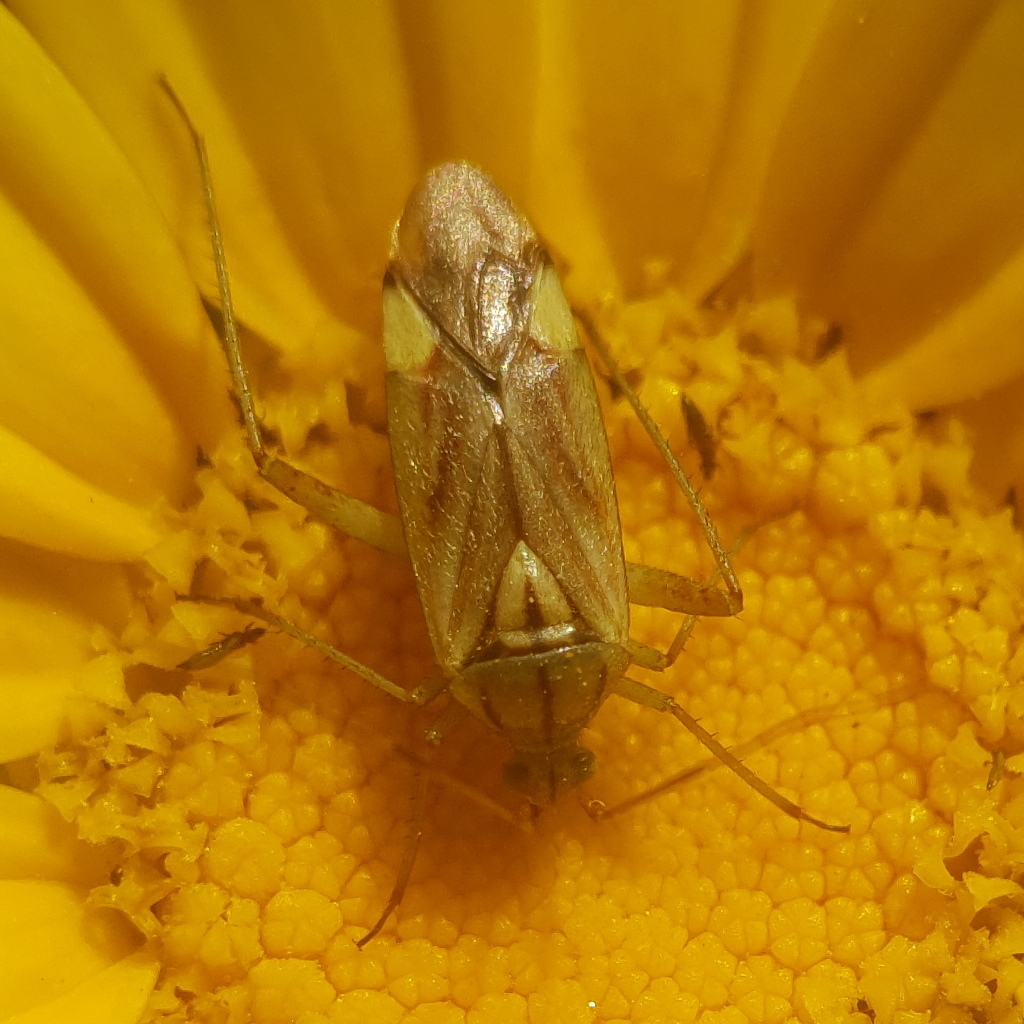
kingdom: Animalia
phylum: Arthropoda
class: Insecta
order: Hemiptera
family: Miridae
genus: Closterotomus
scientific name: Closterotomus putoni
